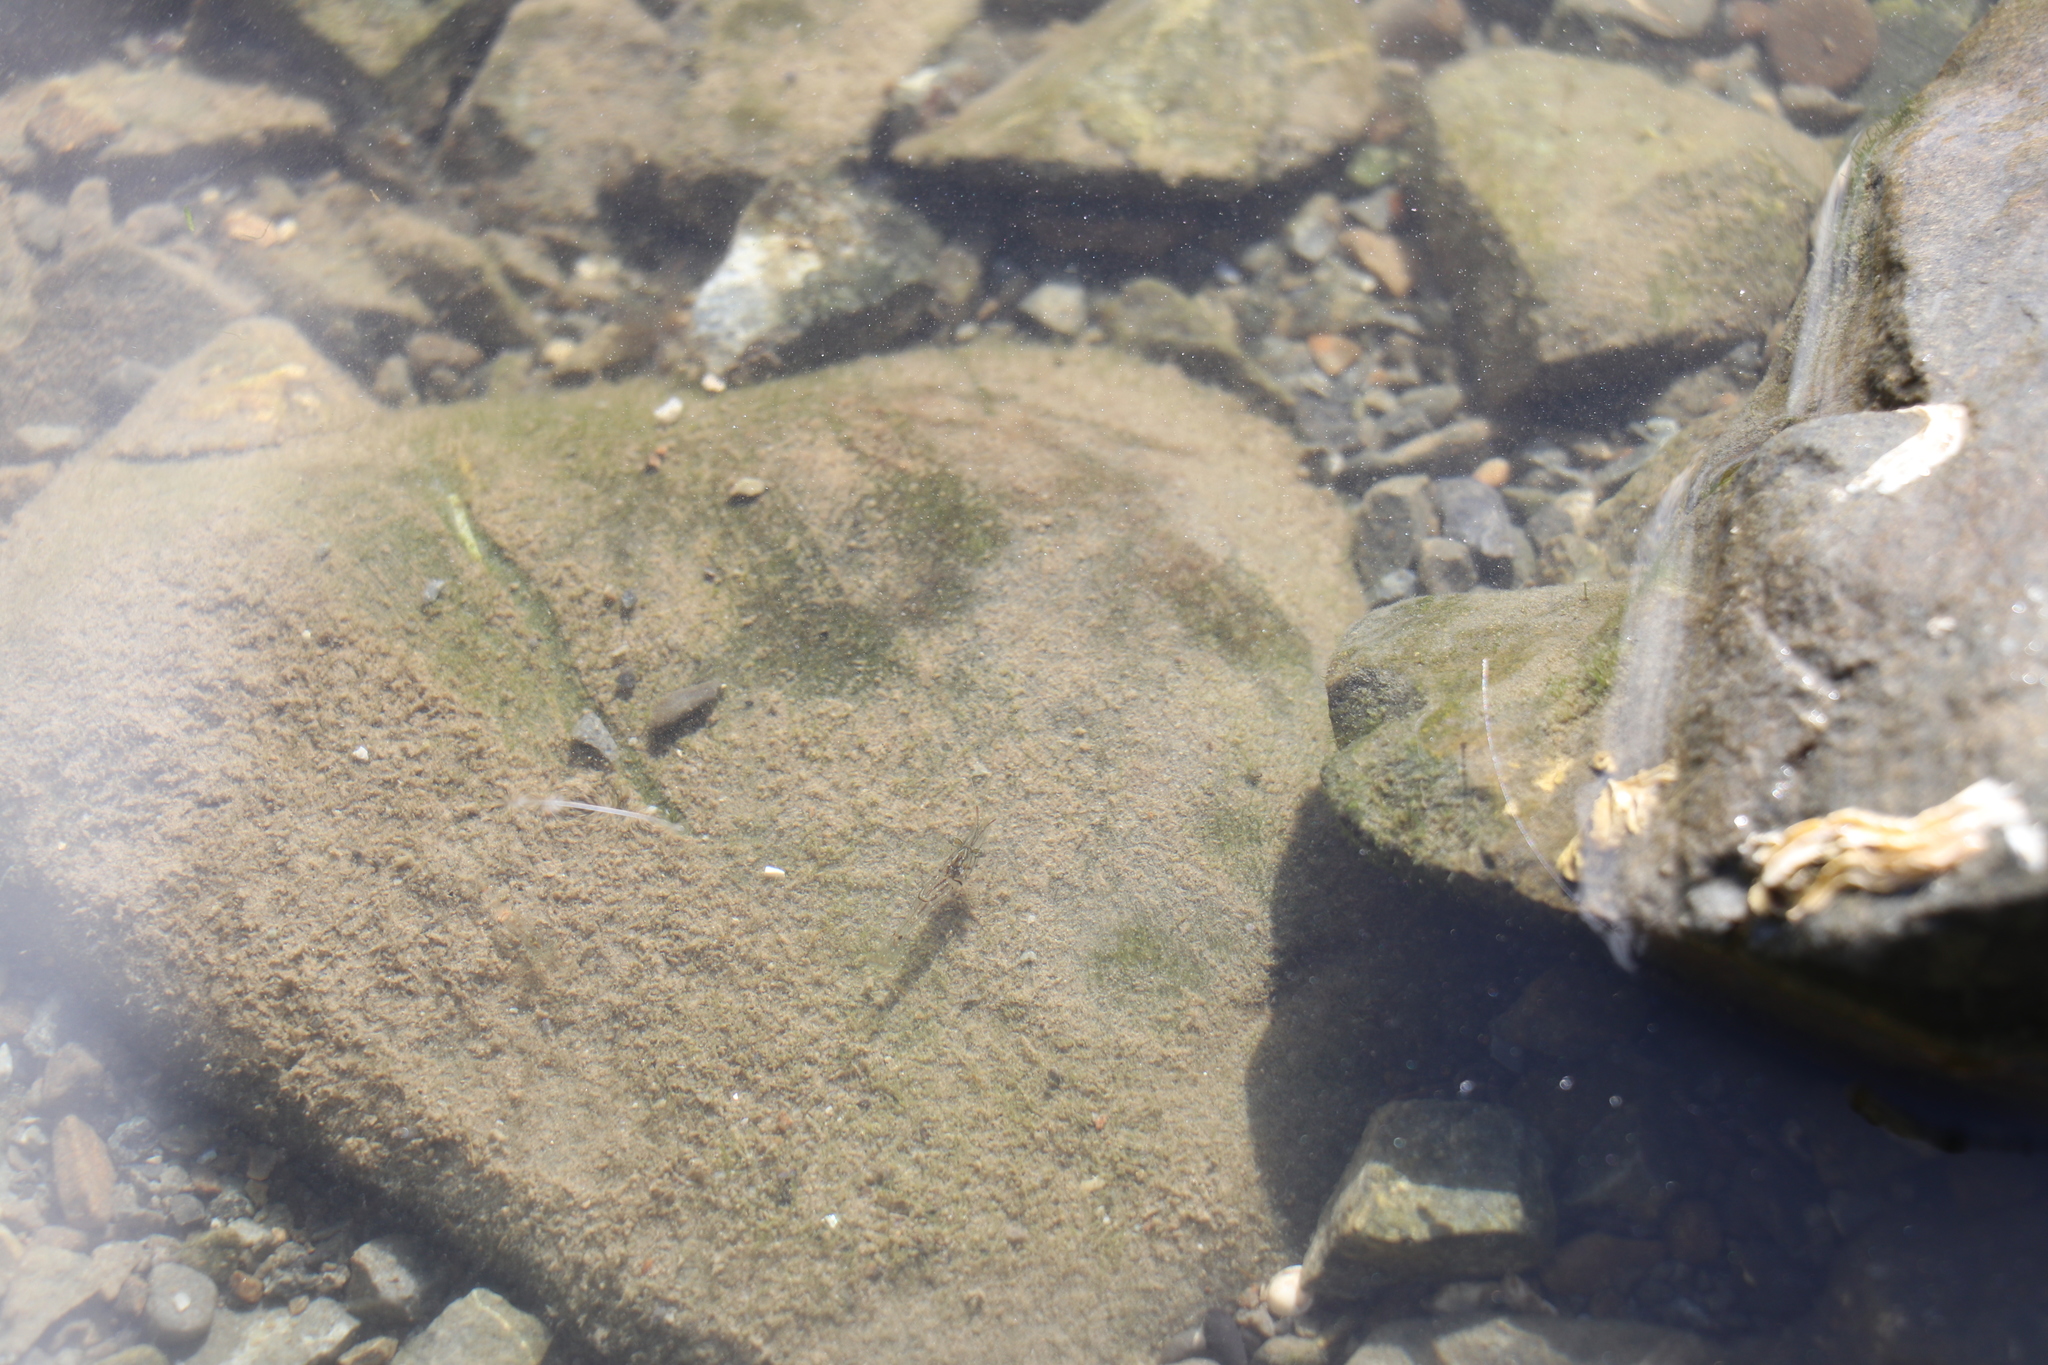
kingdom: Animalia
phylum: Arthropoda
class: Malacostraca
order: Decapoda
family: Palaemonidae
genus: Palaemon
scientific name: Palaemon affinis
